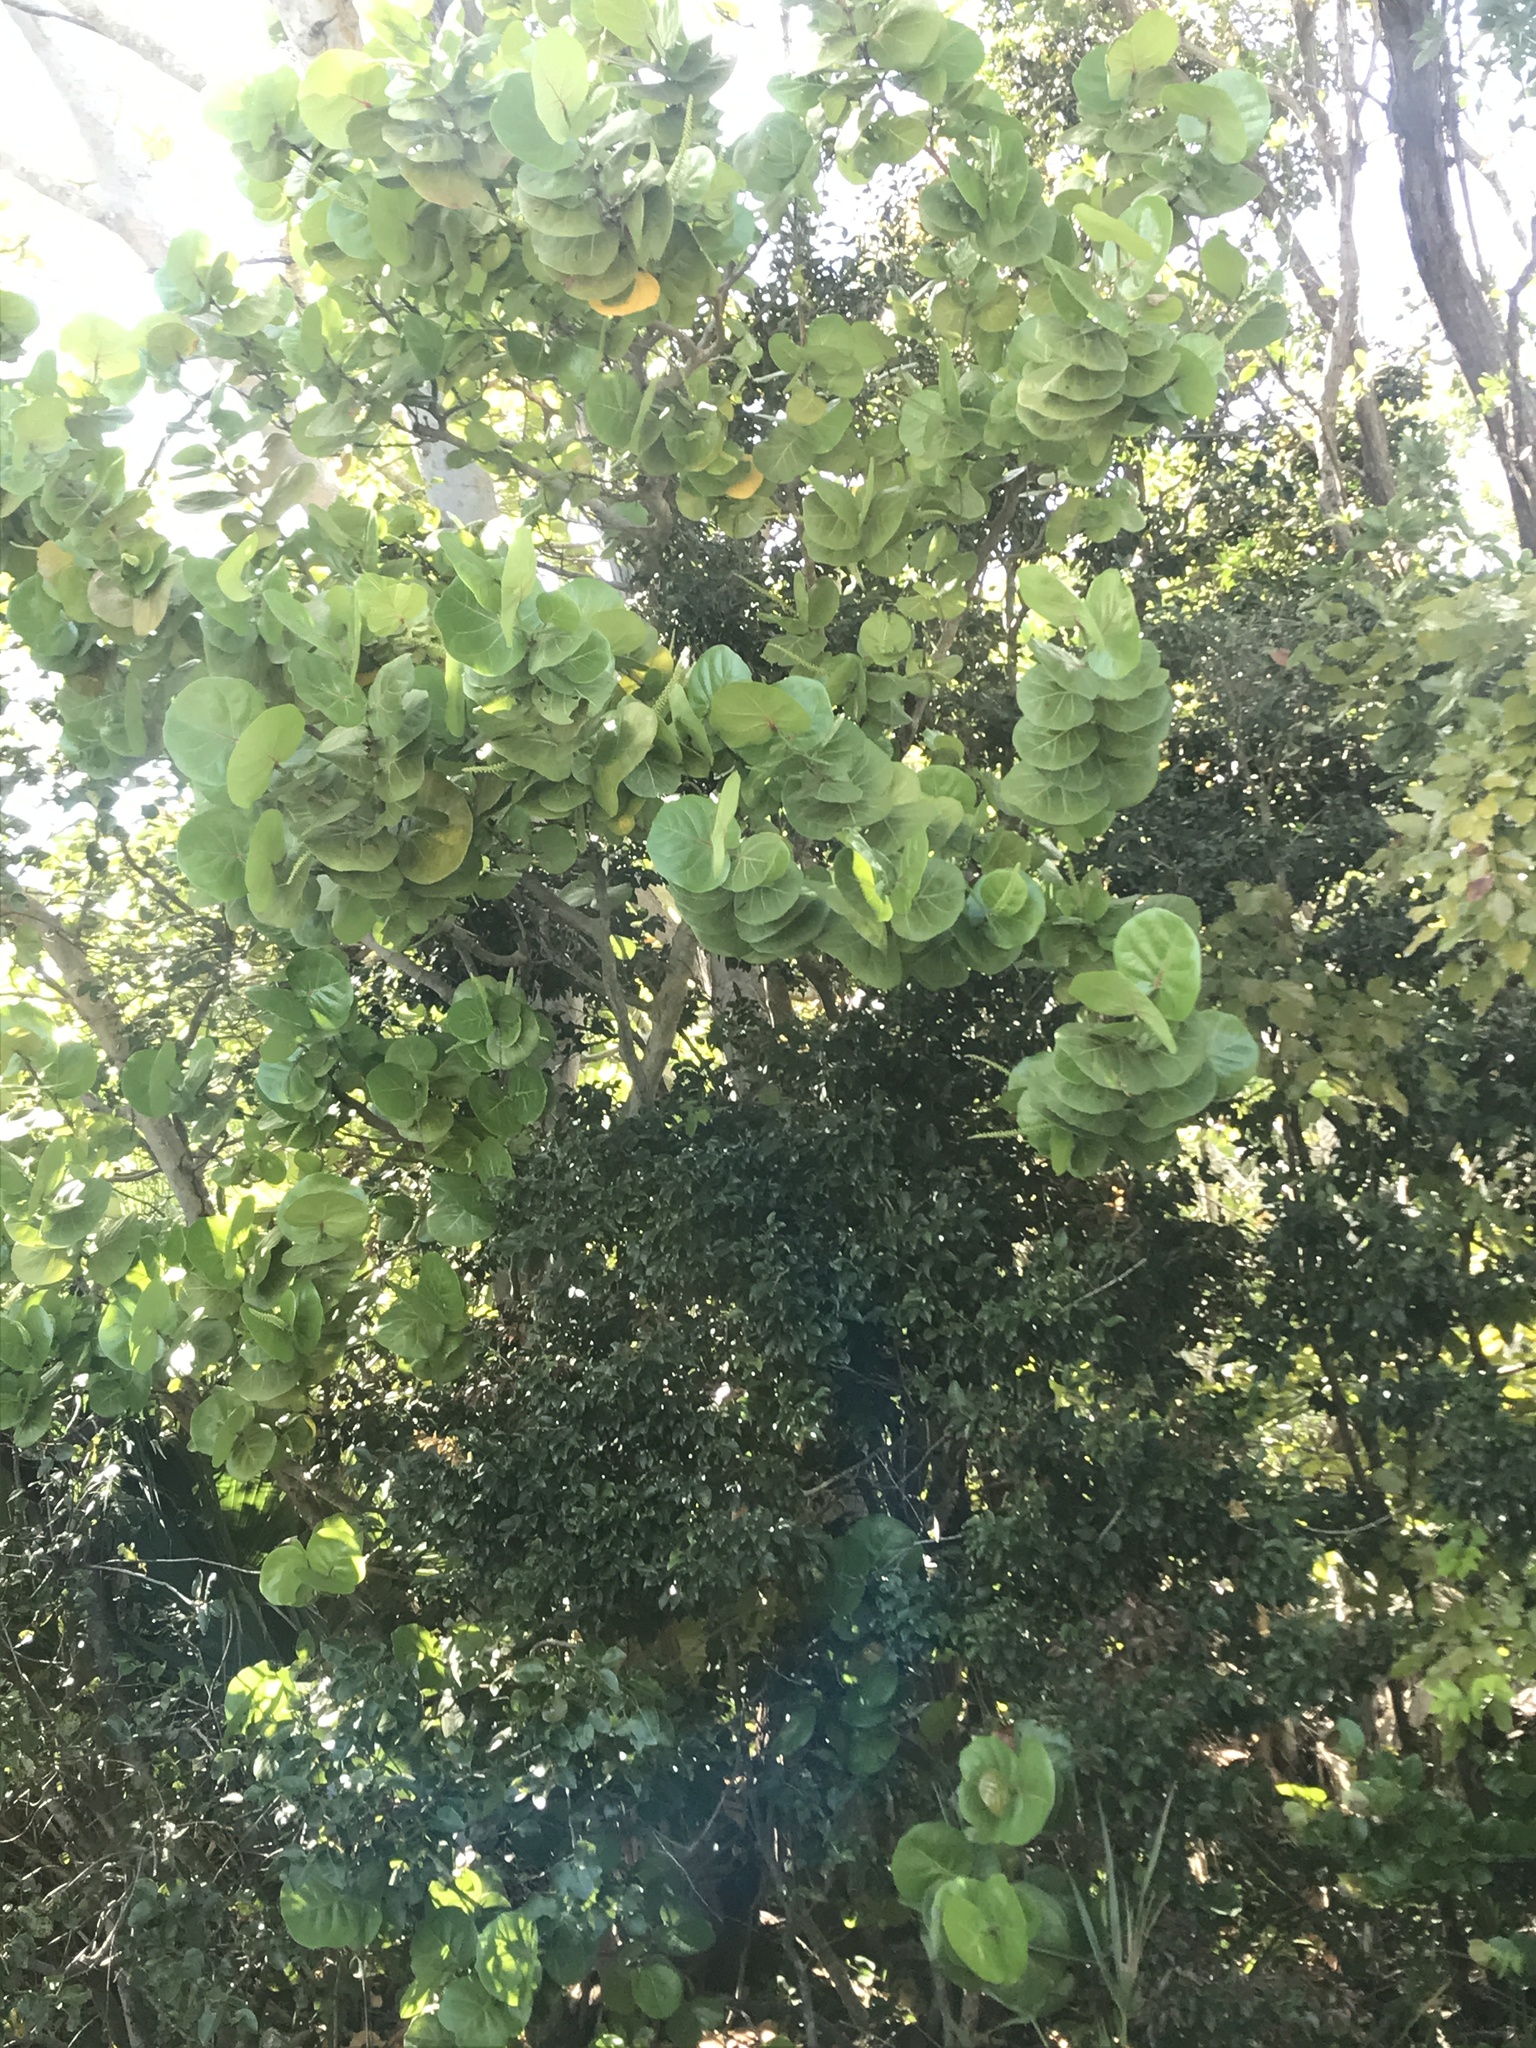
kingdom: Plantae
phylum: Tracheophyta
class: Magnoliopsida
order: Caryophyllales
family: Polygonaceae
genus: Coccoloba
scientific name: Coccoloba uvifera
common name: Seagrape
